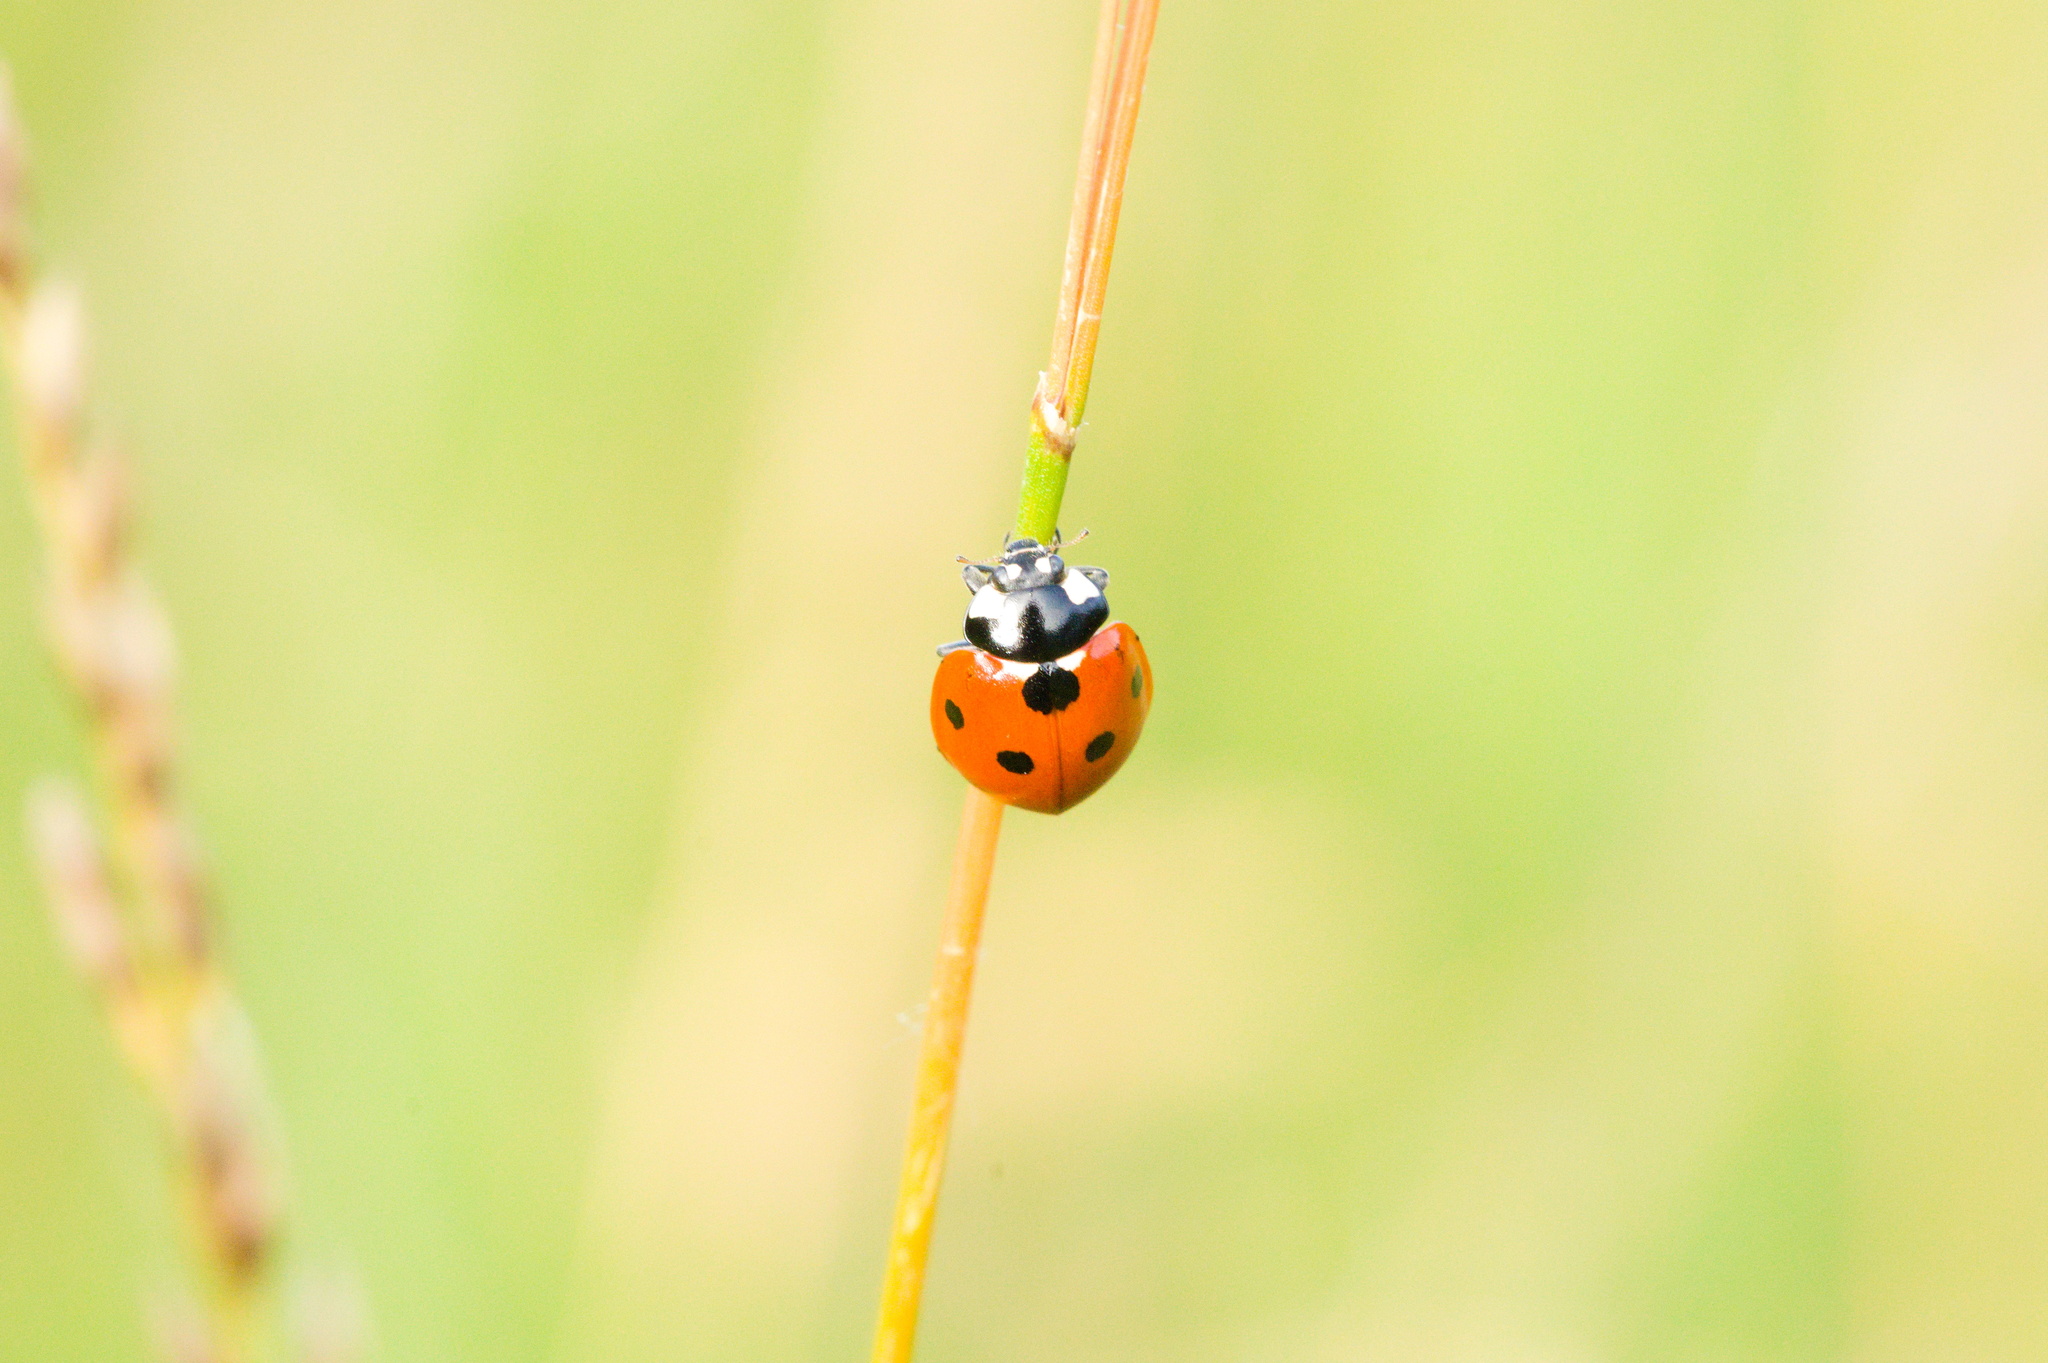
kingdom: Animalia
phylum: Arthropoda
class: Insecta
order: Coleoptera
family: Coccinellidae
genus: Coccinella
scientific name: Coccinella septempunctata
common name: Sevenspotted lady beetle
